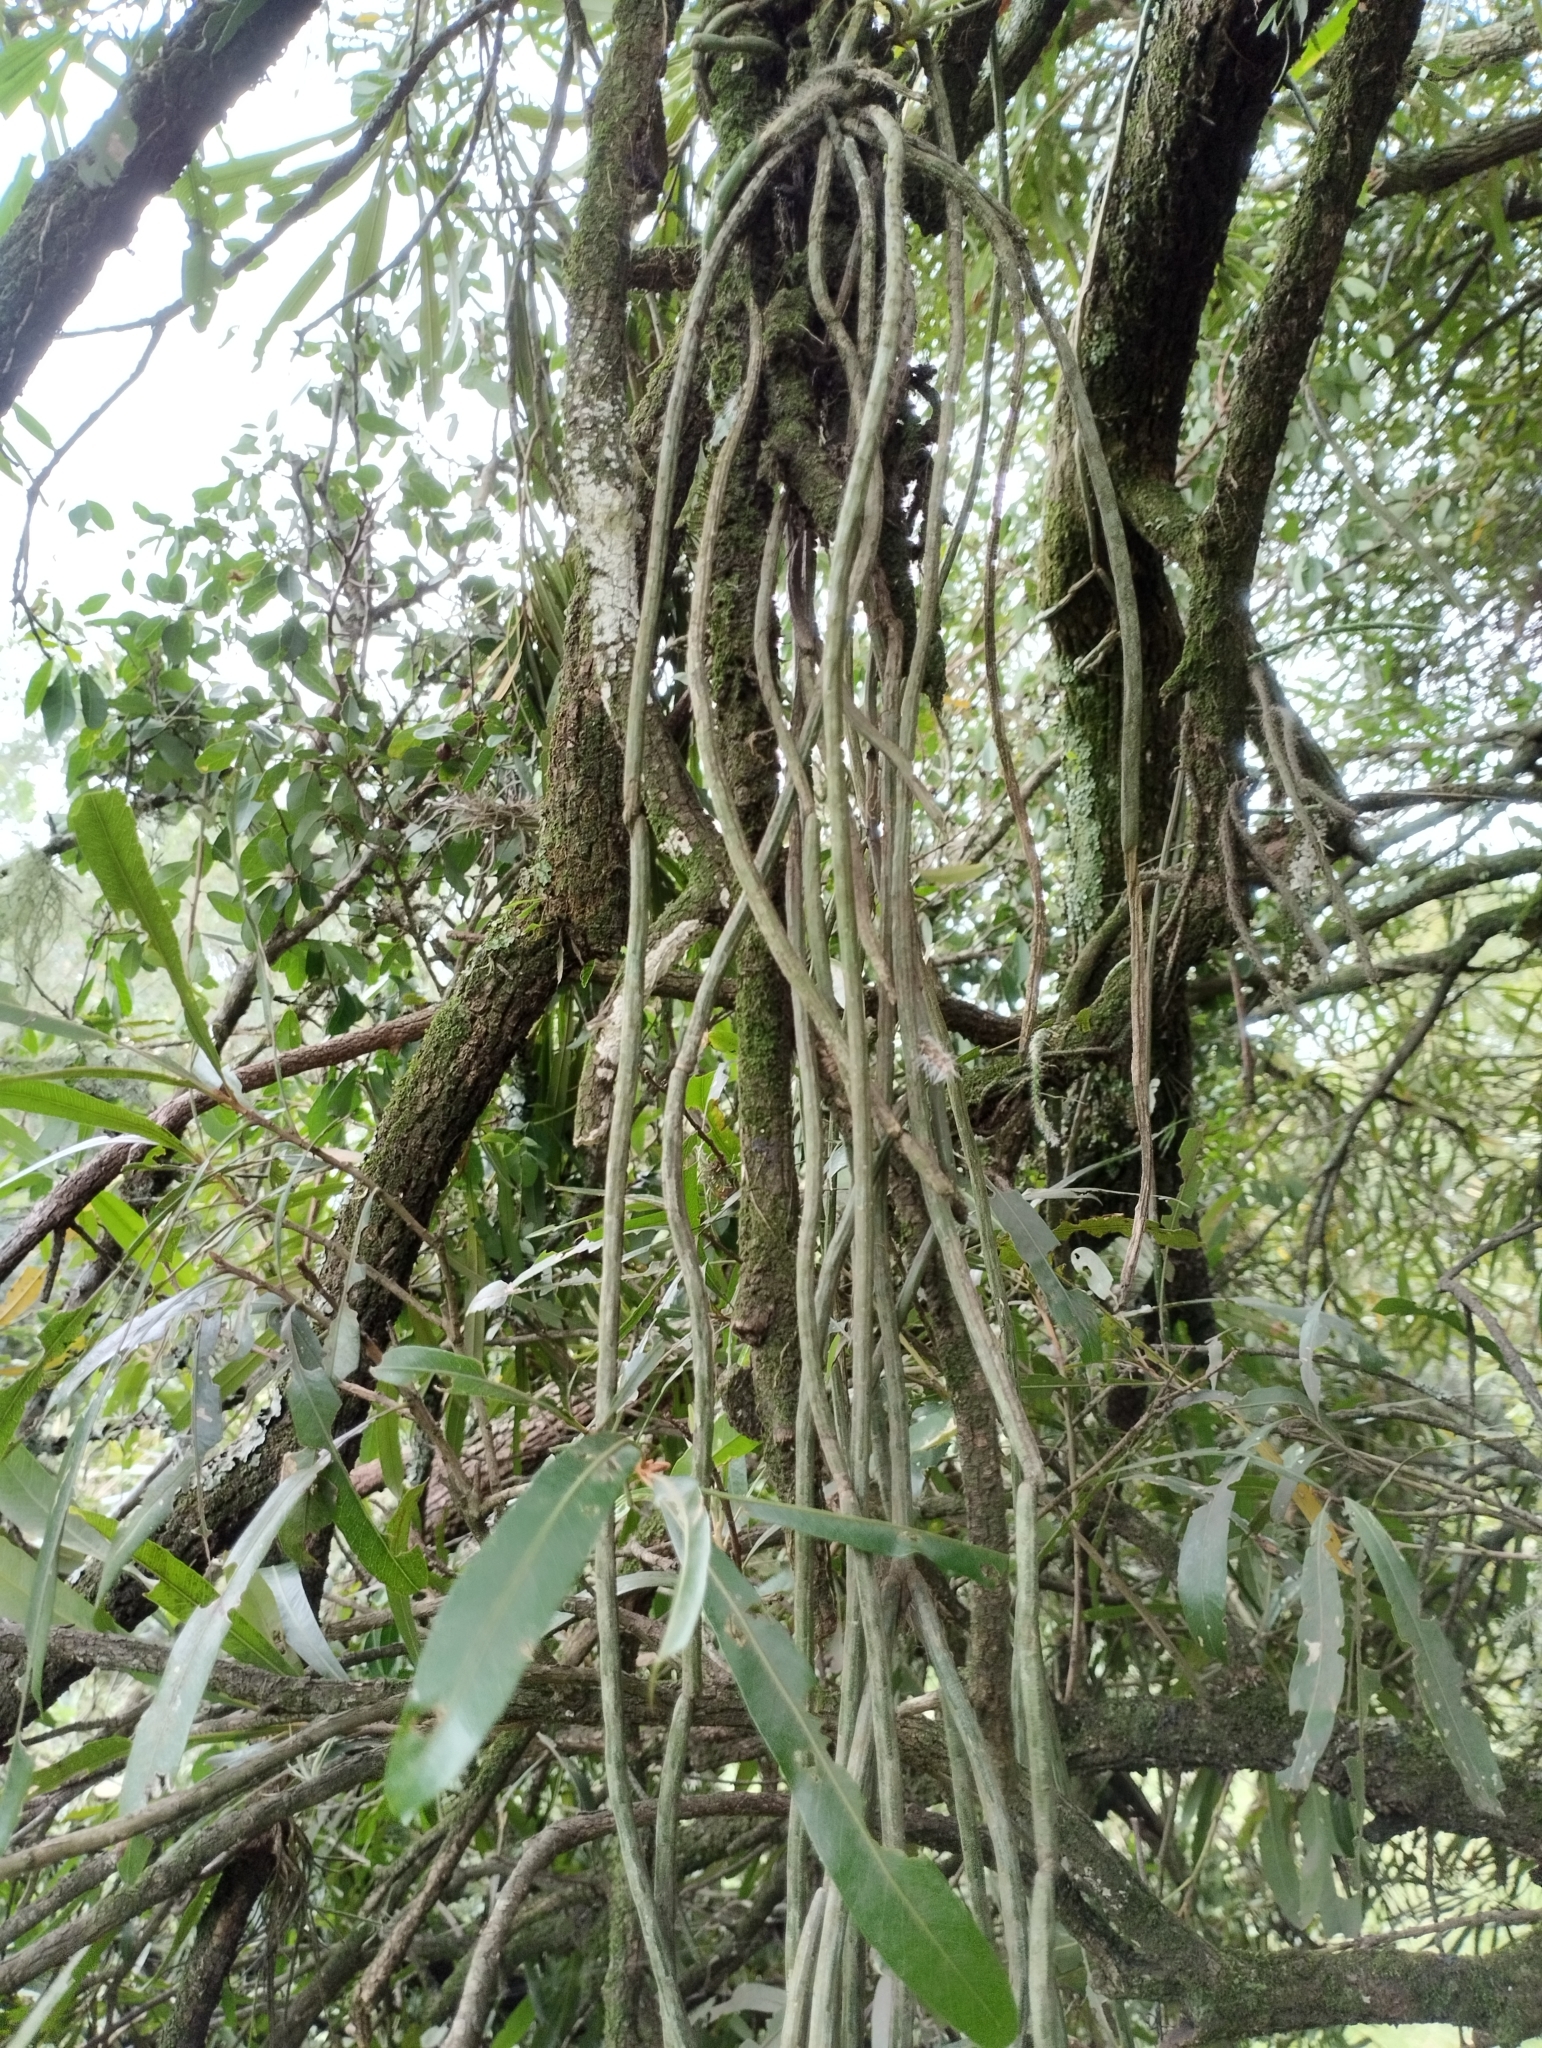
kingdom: Plantae
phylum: Tracheophyta
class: Magnoliopsida
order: Caryophyllales
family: Cactaceae
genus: Lepismium
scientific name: Lepismium lumbricoides
